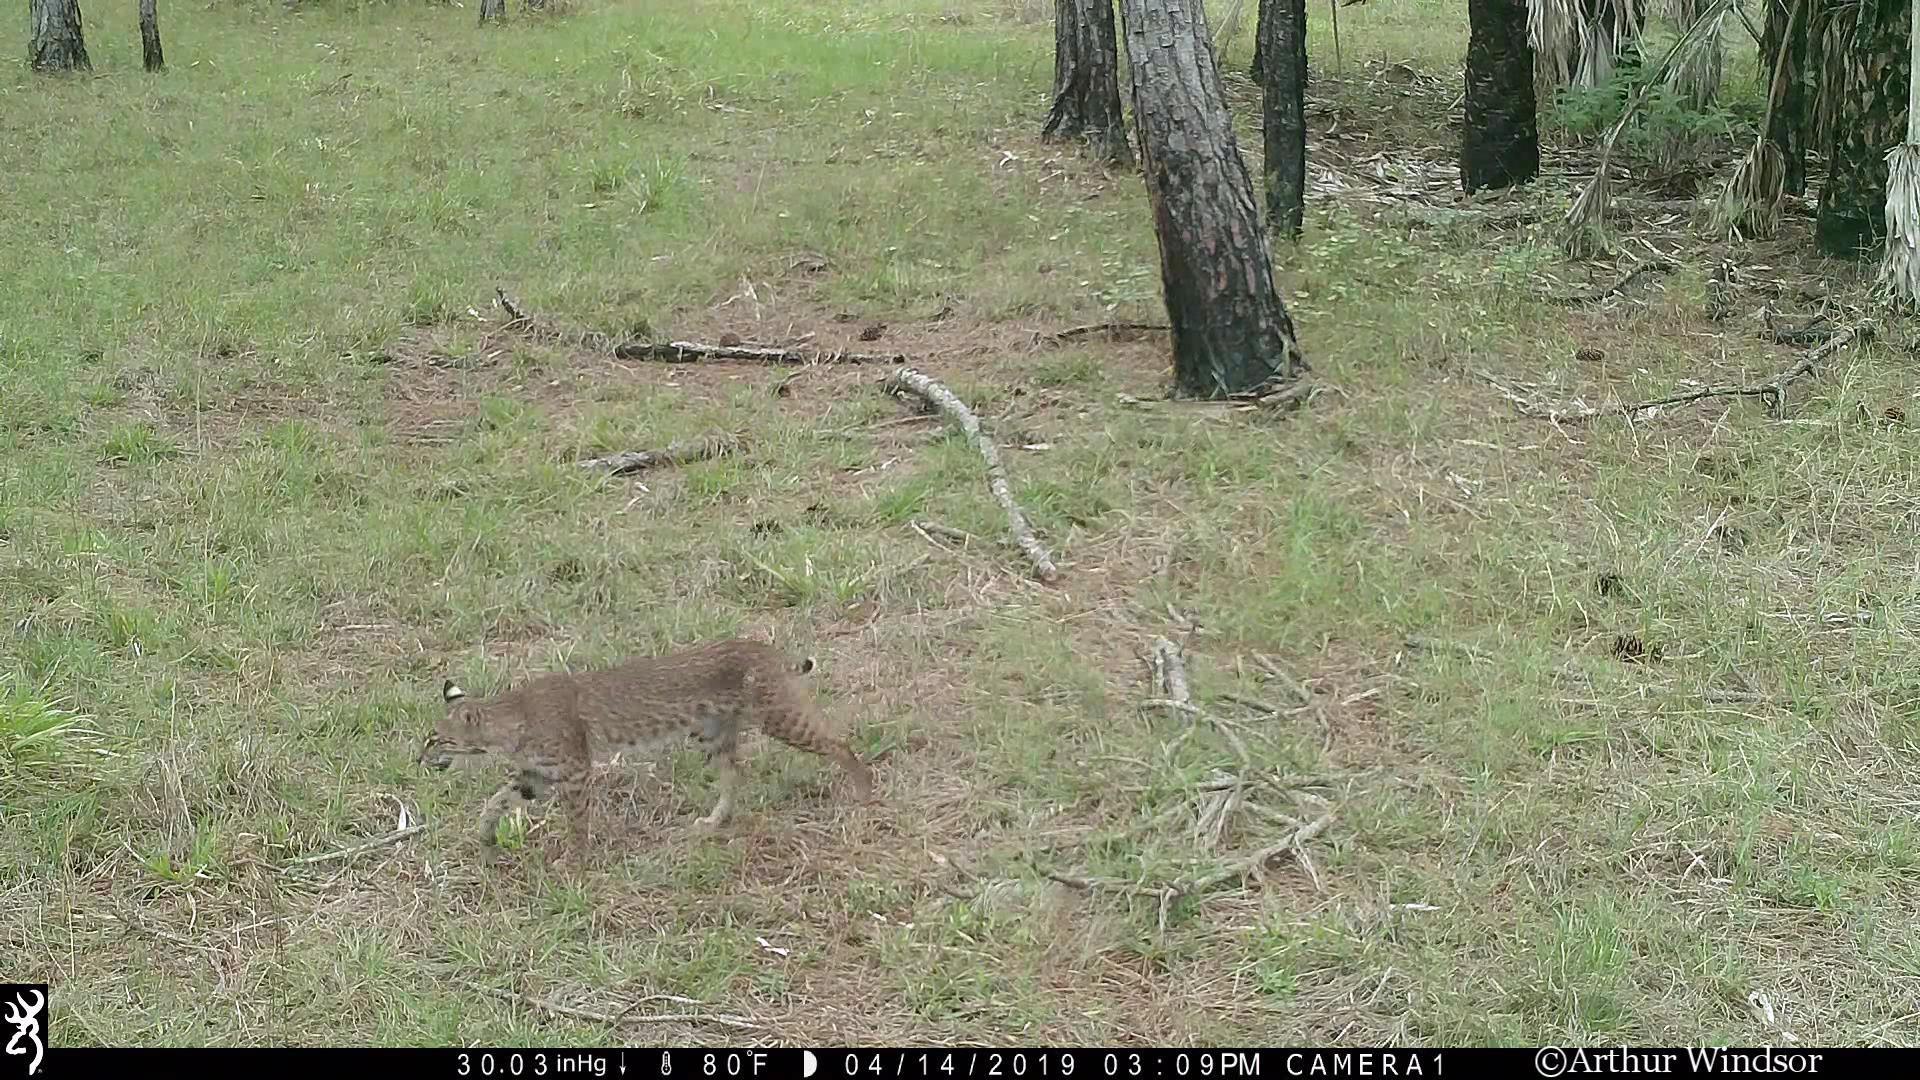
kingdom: Animalia
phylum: Chordata
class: Mammalia
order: Carnivora
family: Felidae
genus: Lynx
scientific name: Lynx rufus
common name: Bobcat
